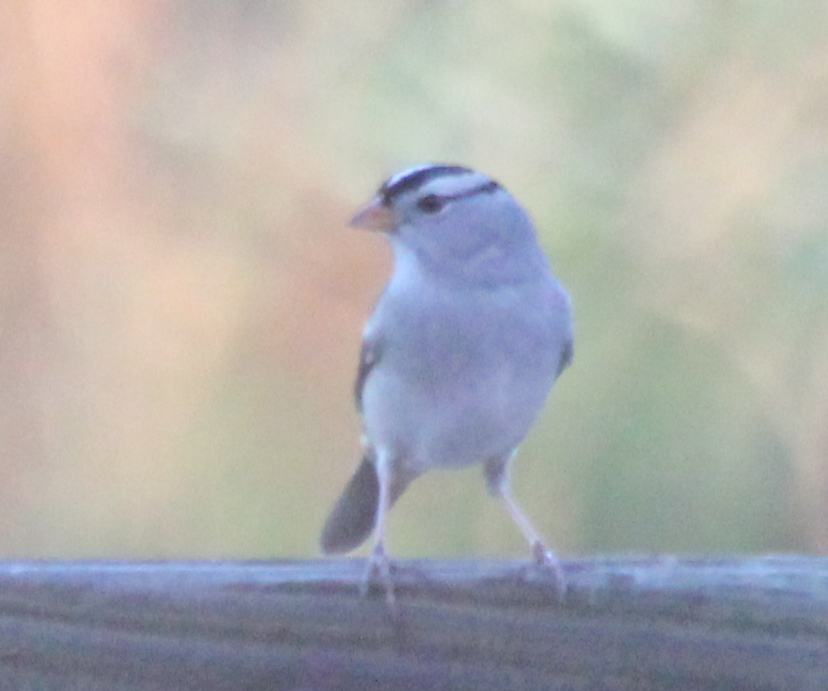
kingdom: Animalia
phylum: Chordata
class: Aves
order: Passeriformes
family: Passerellidae
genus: Zonotrichia
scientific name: Zonotrichia leucophrys
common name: White-crowned sparrow
